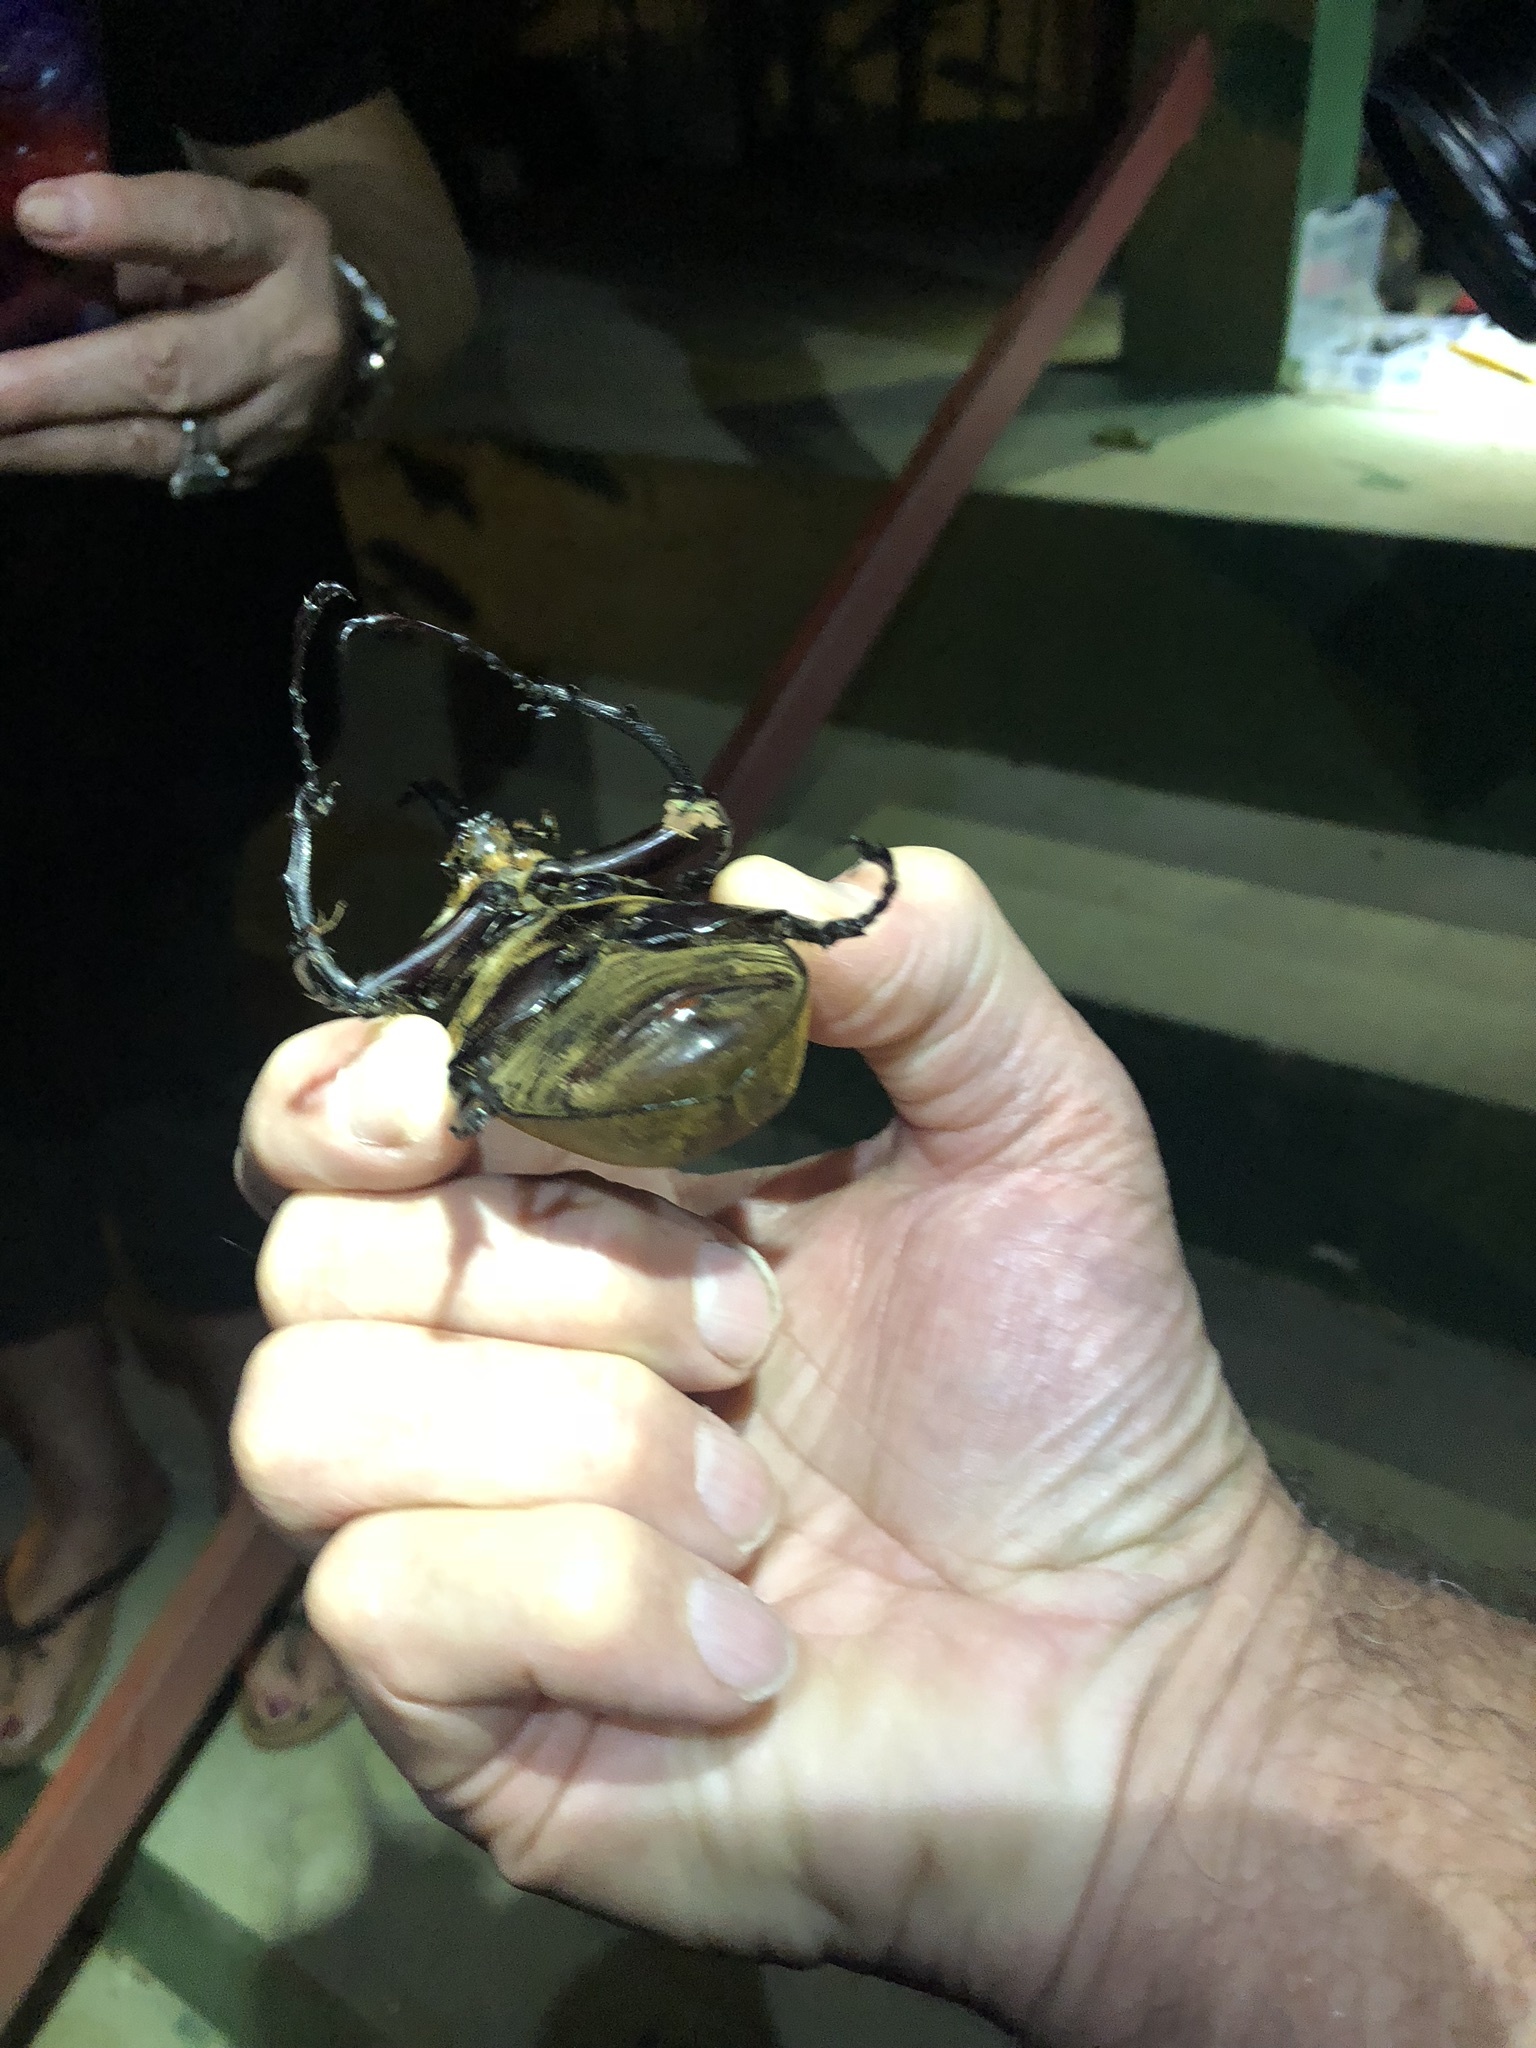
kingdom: Animalia
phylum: Arthropoda
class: Insecta
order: Coleoptera
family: Scarabaeidae
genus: Megasoma
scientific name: Megasoma elephas
